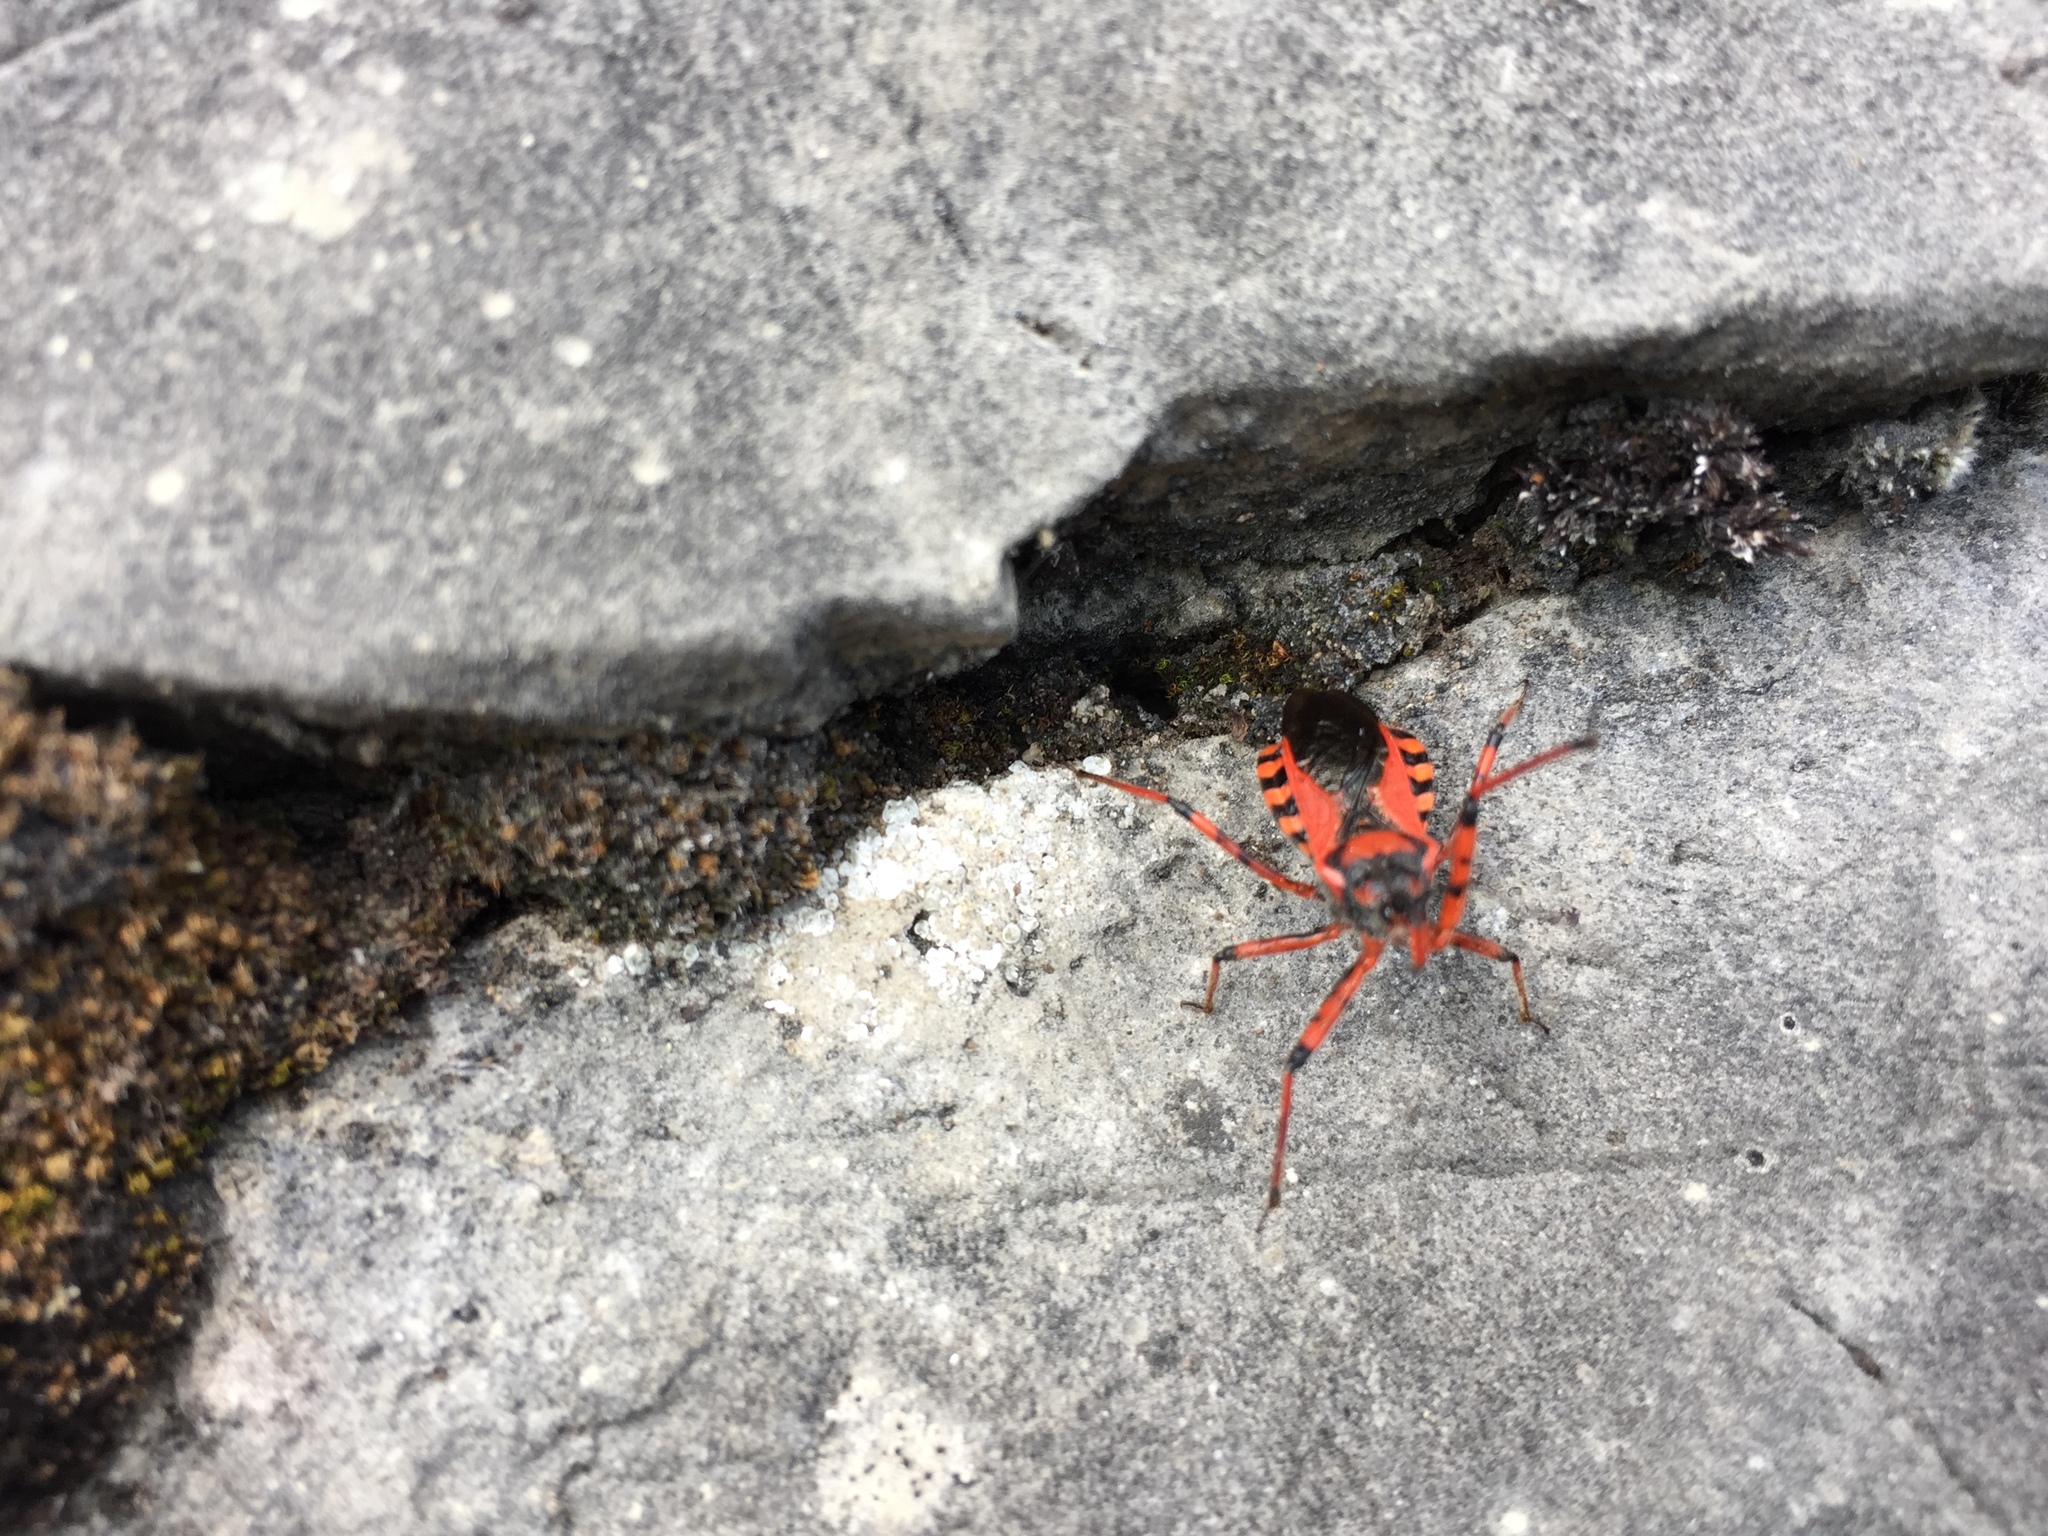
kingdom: Animalia
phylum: Arthropoda
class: Insecta
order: Hemiptera
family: Reduviidae
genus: Rhynocoris
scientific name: Rhynocoris iracundus
